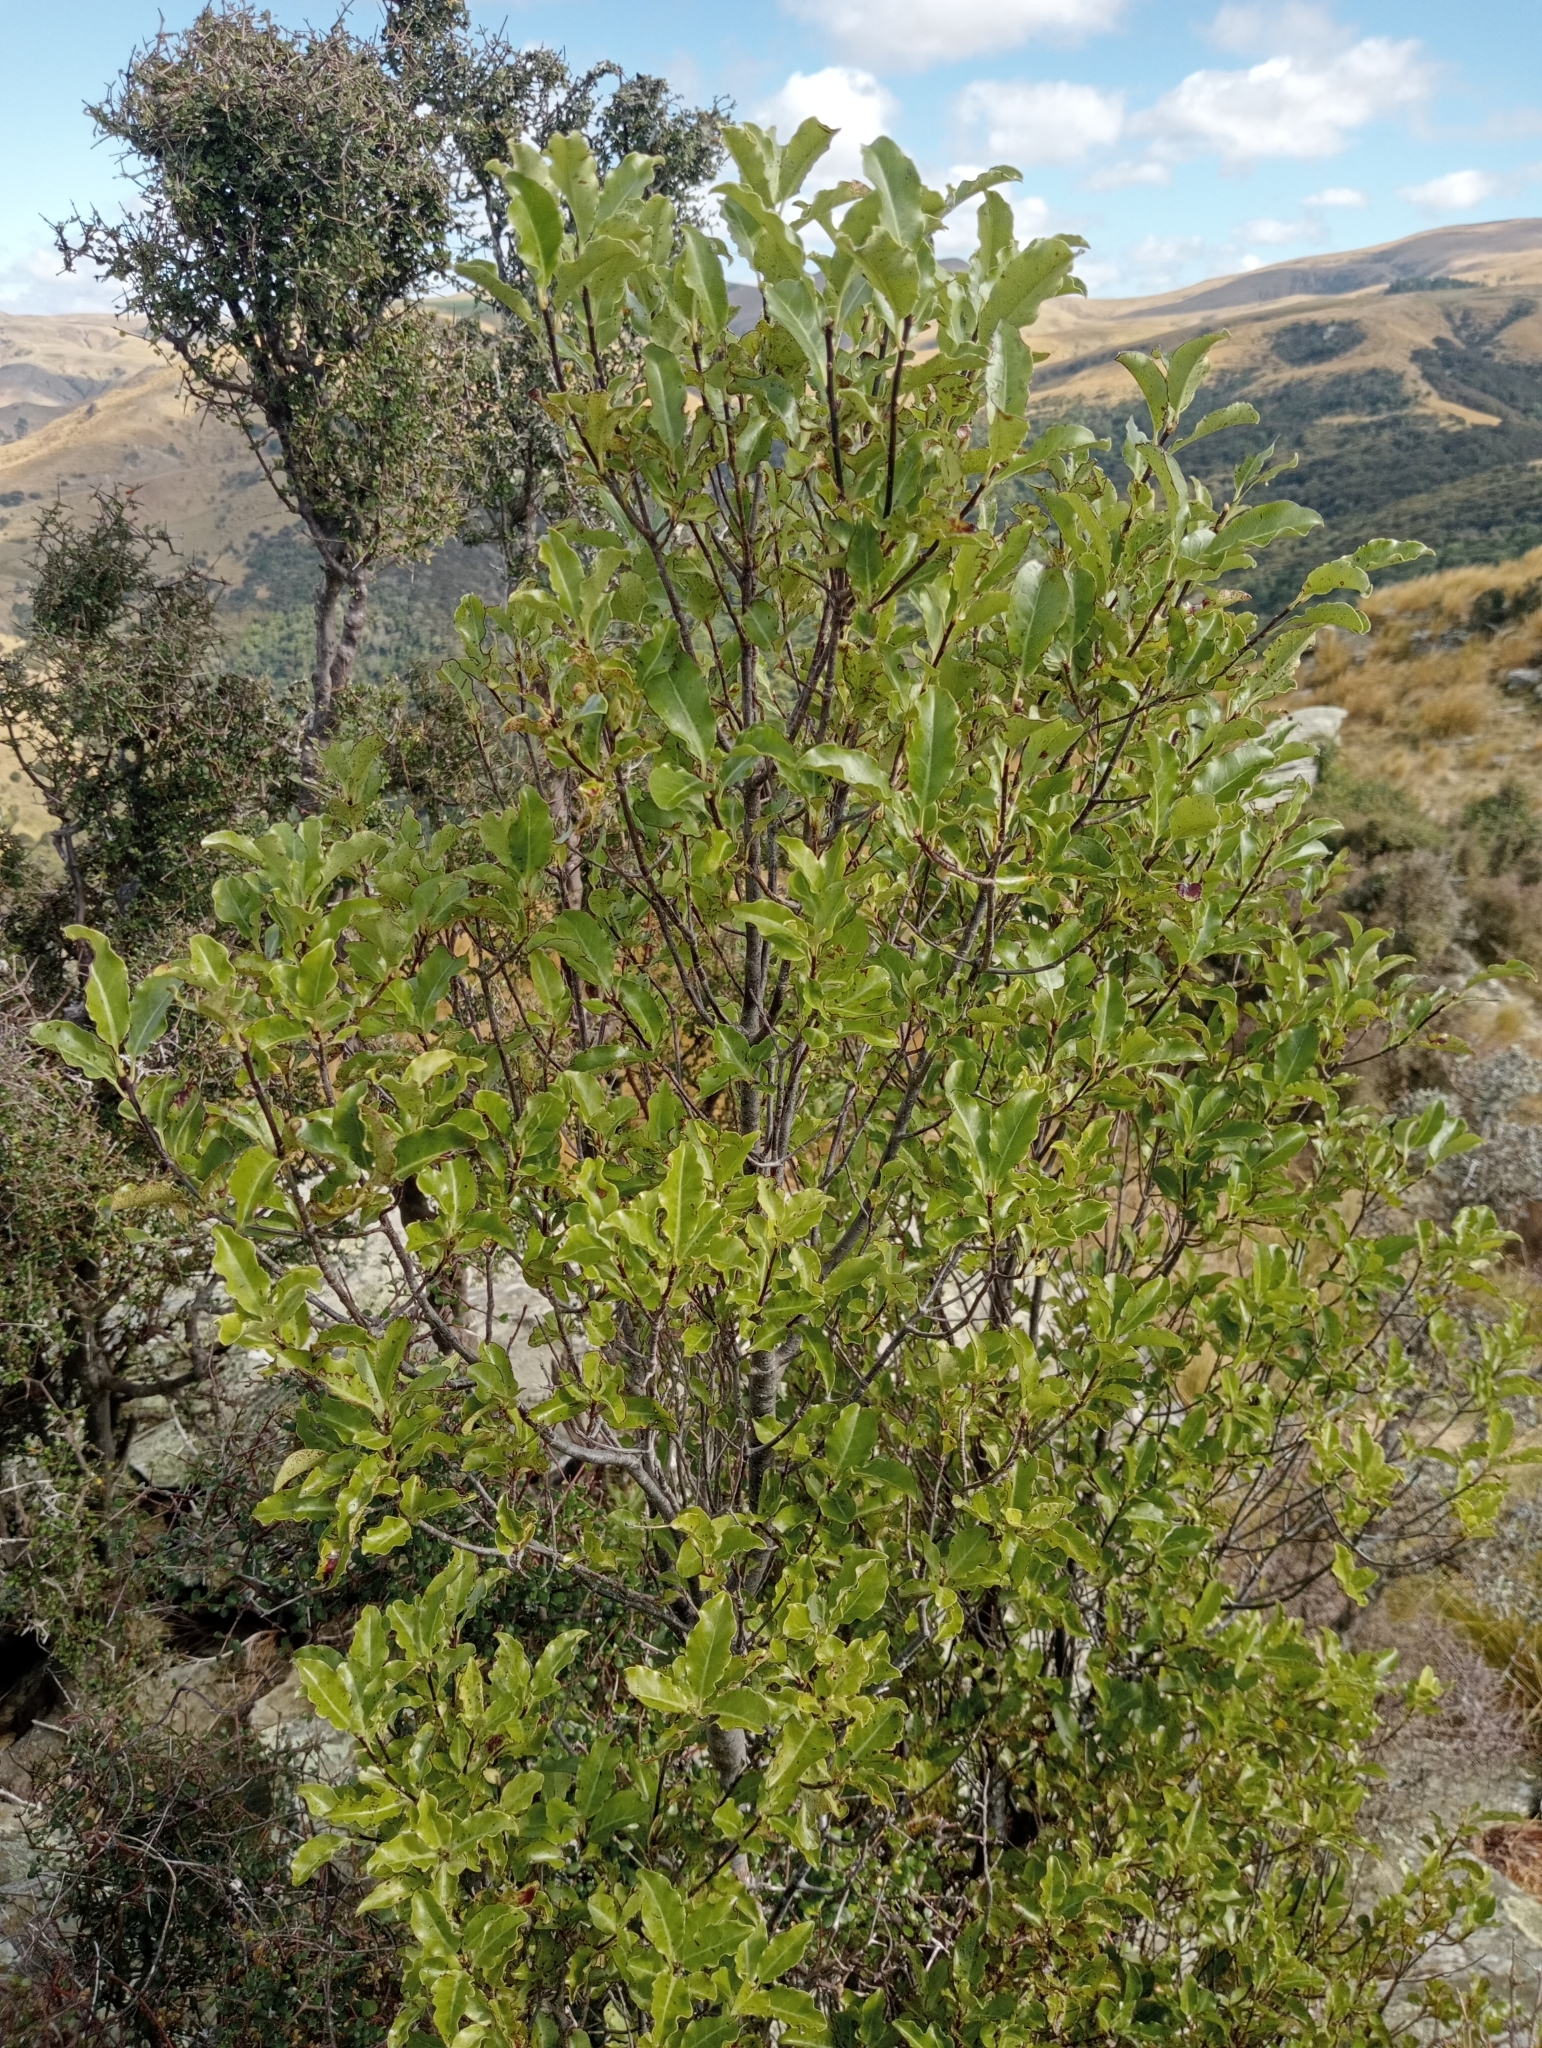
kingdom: Plantae
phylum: Tracheophyta
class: Magnoliopsida
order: Apiales
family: Pittosporaceae
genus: Pittosporum
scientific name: Pittosporum tenuifolium
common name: Kohuhu
